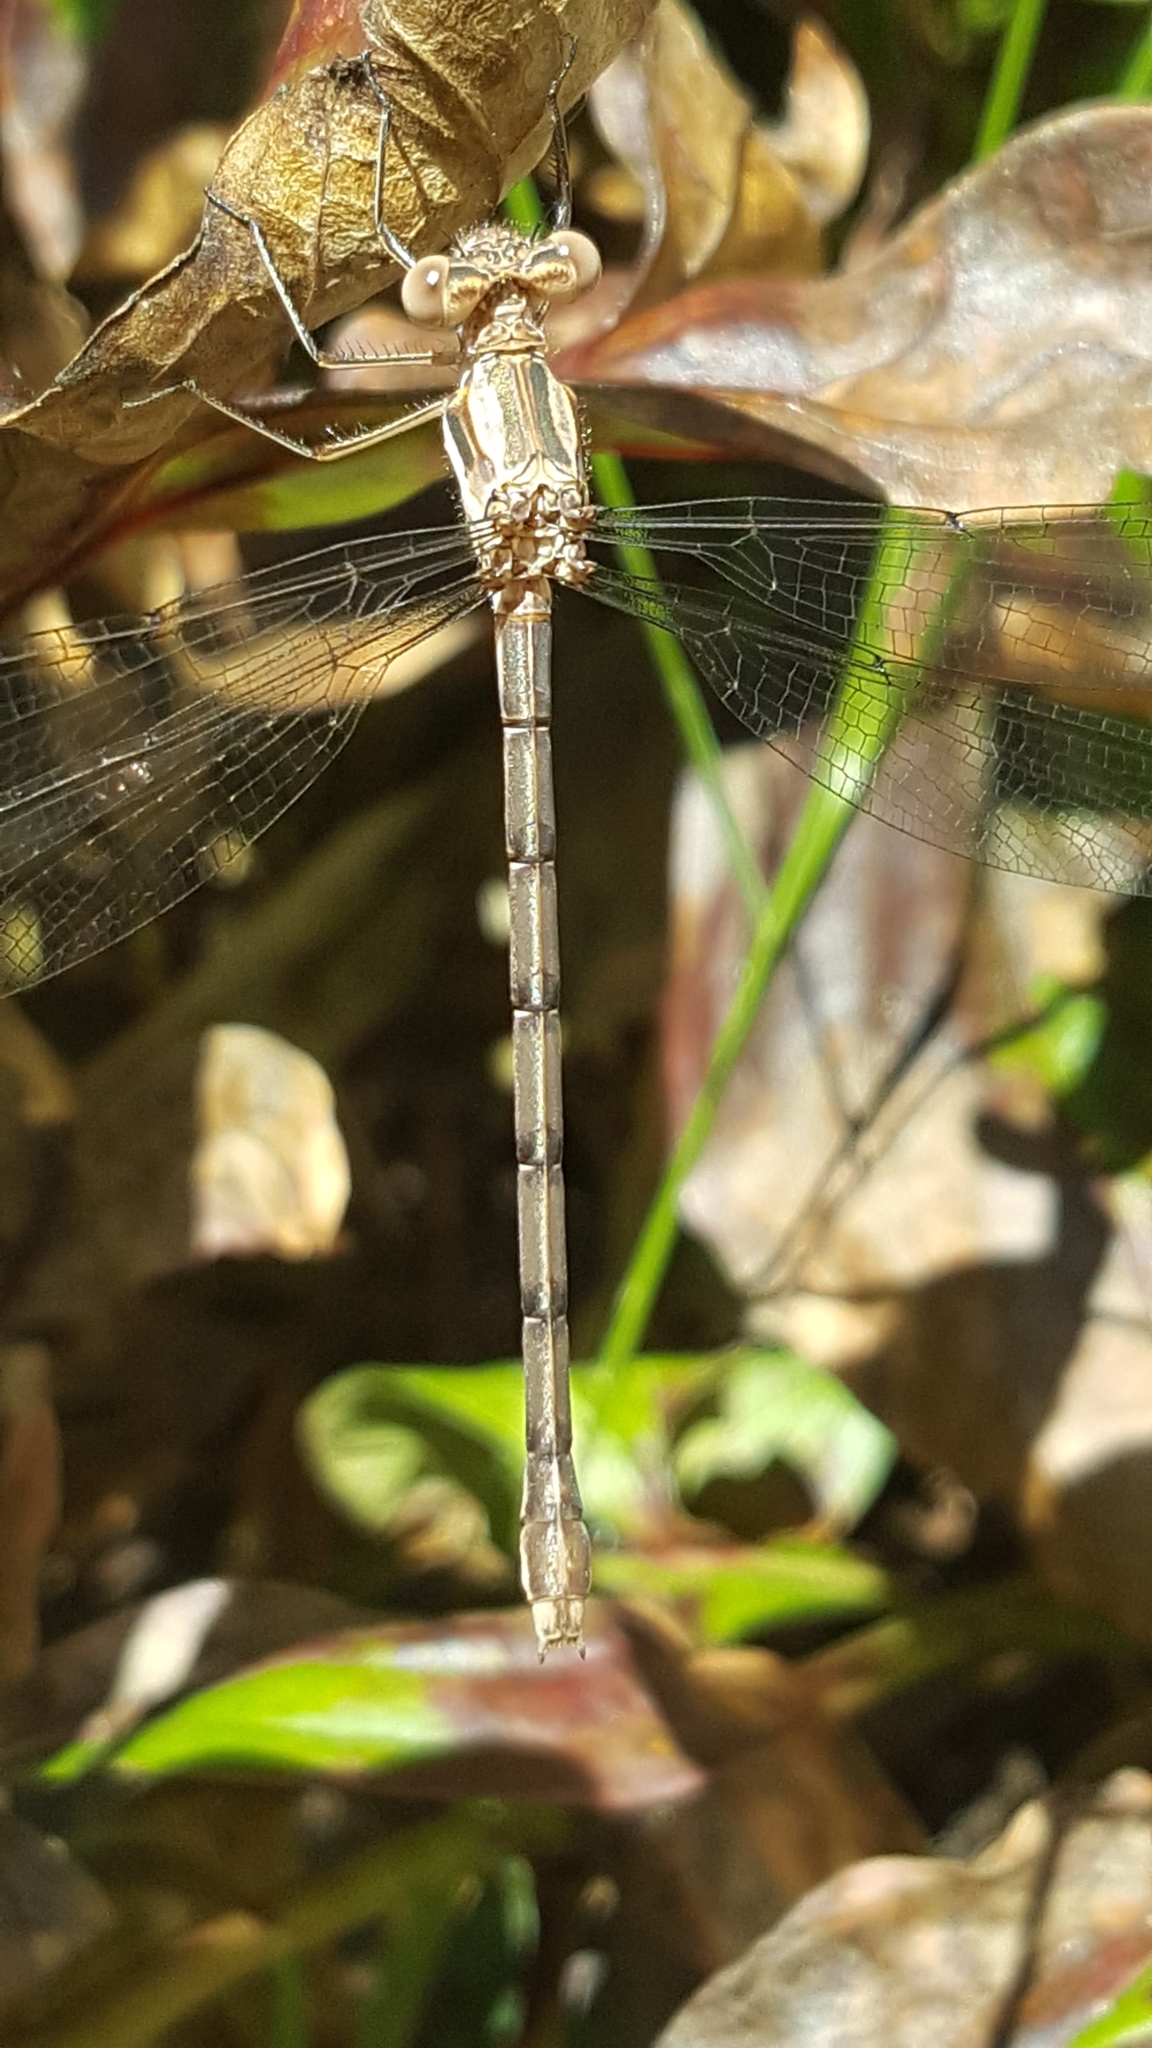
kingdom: Animalia
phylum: Arthropoda
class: Insecta
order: Odonata
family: Lestidae
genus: Archilestes
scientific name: Archilestes californicus
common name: California spreadwing
